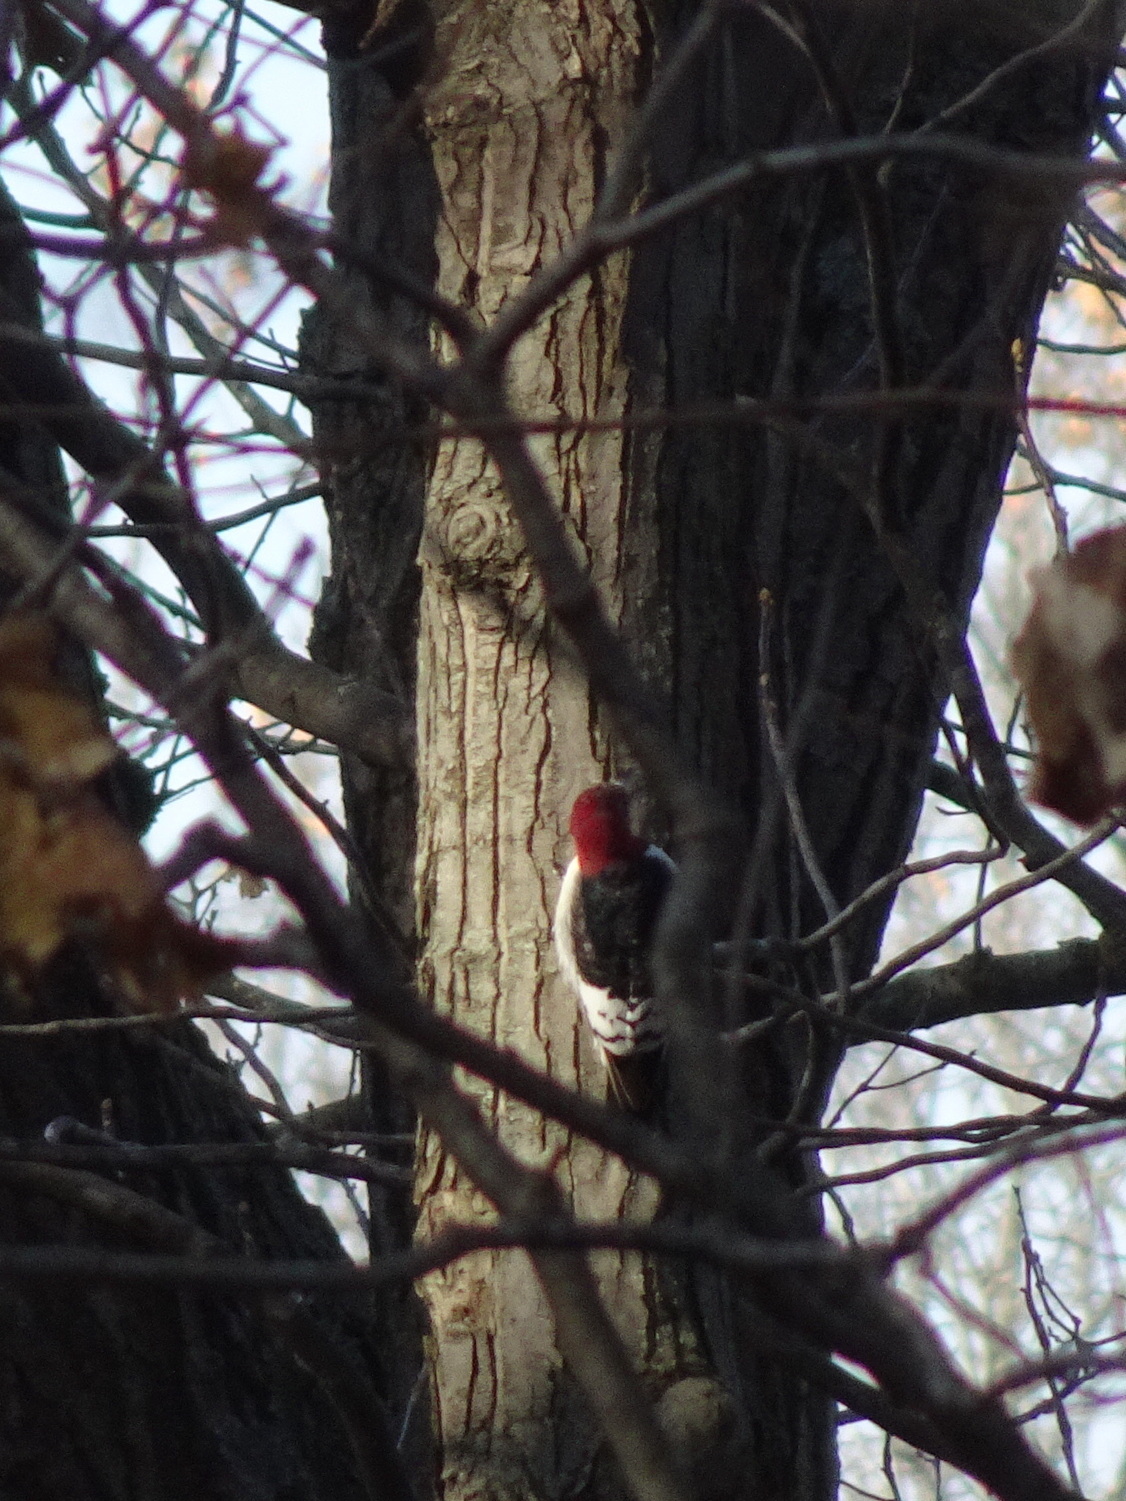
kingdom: Animalia
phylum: Chordata
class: Aves
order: Piciformes
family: Picidae
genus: Melanerpes
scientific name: Melanerpes erythrocephalus
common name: Red-headed woodpecker
